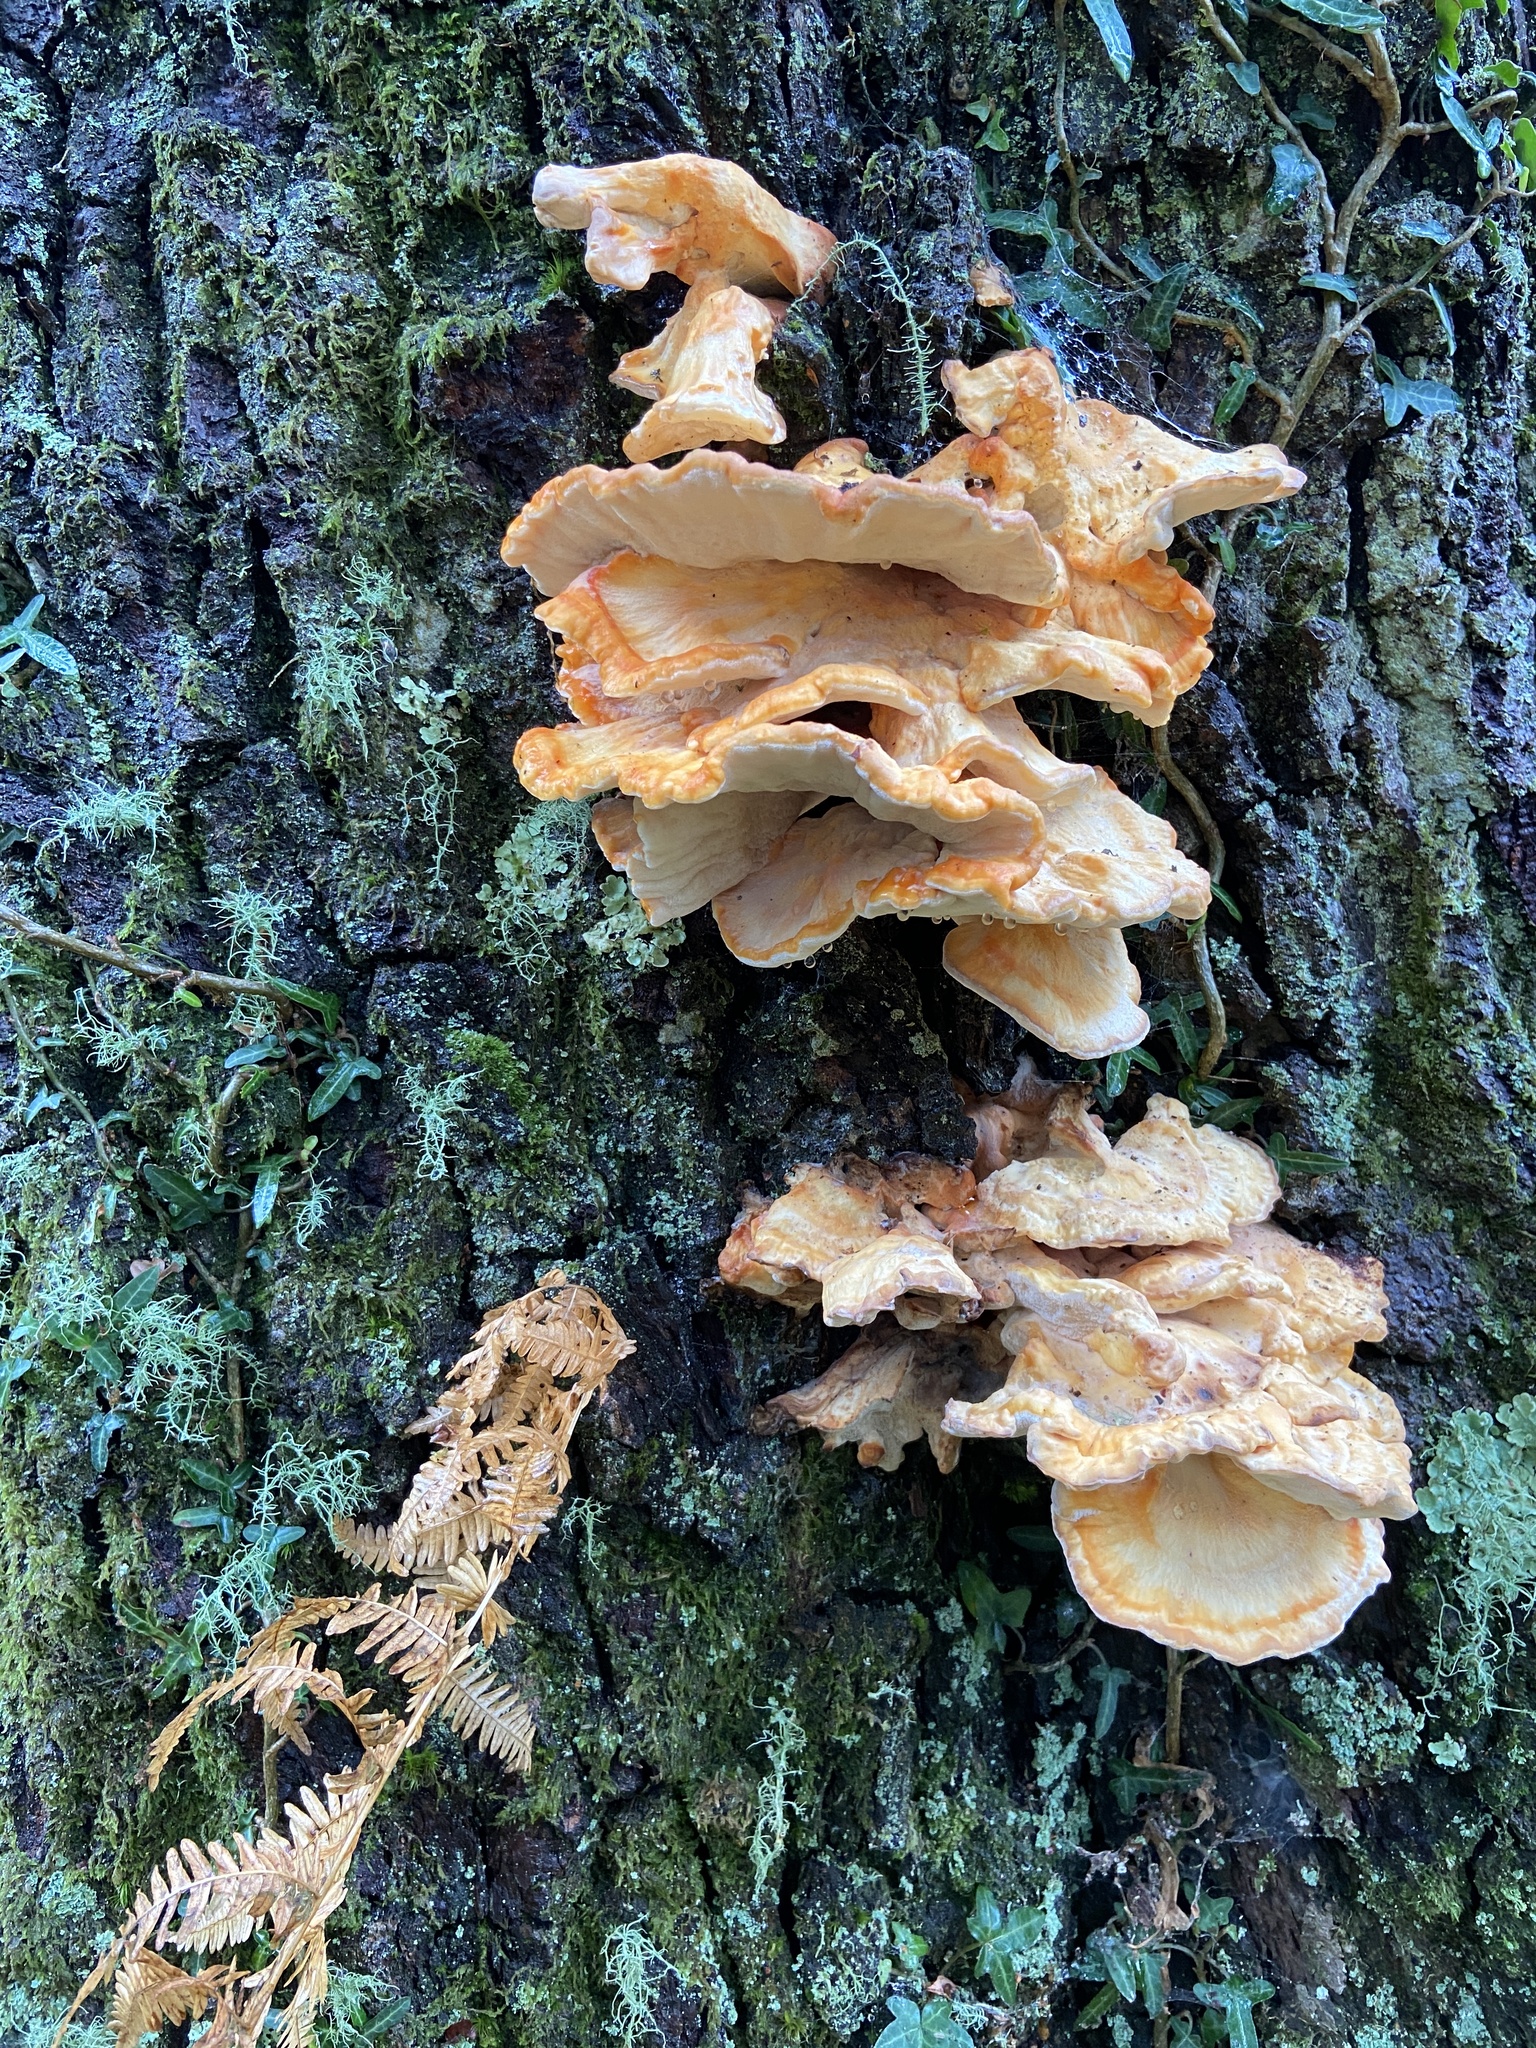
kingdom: Fungi
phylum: Basidiomycota
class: Agaricomycetes
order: Polyporales
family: Laetiporaceae
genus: Laetiporus
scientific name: Laetiporus sulphureus
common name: Chicken of the woods
